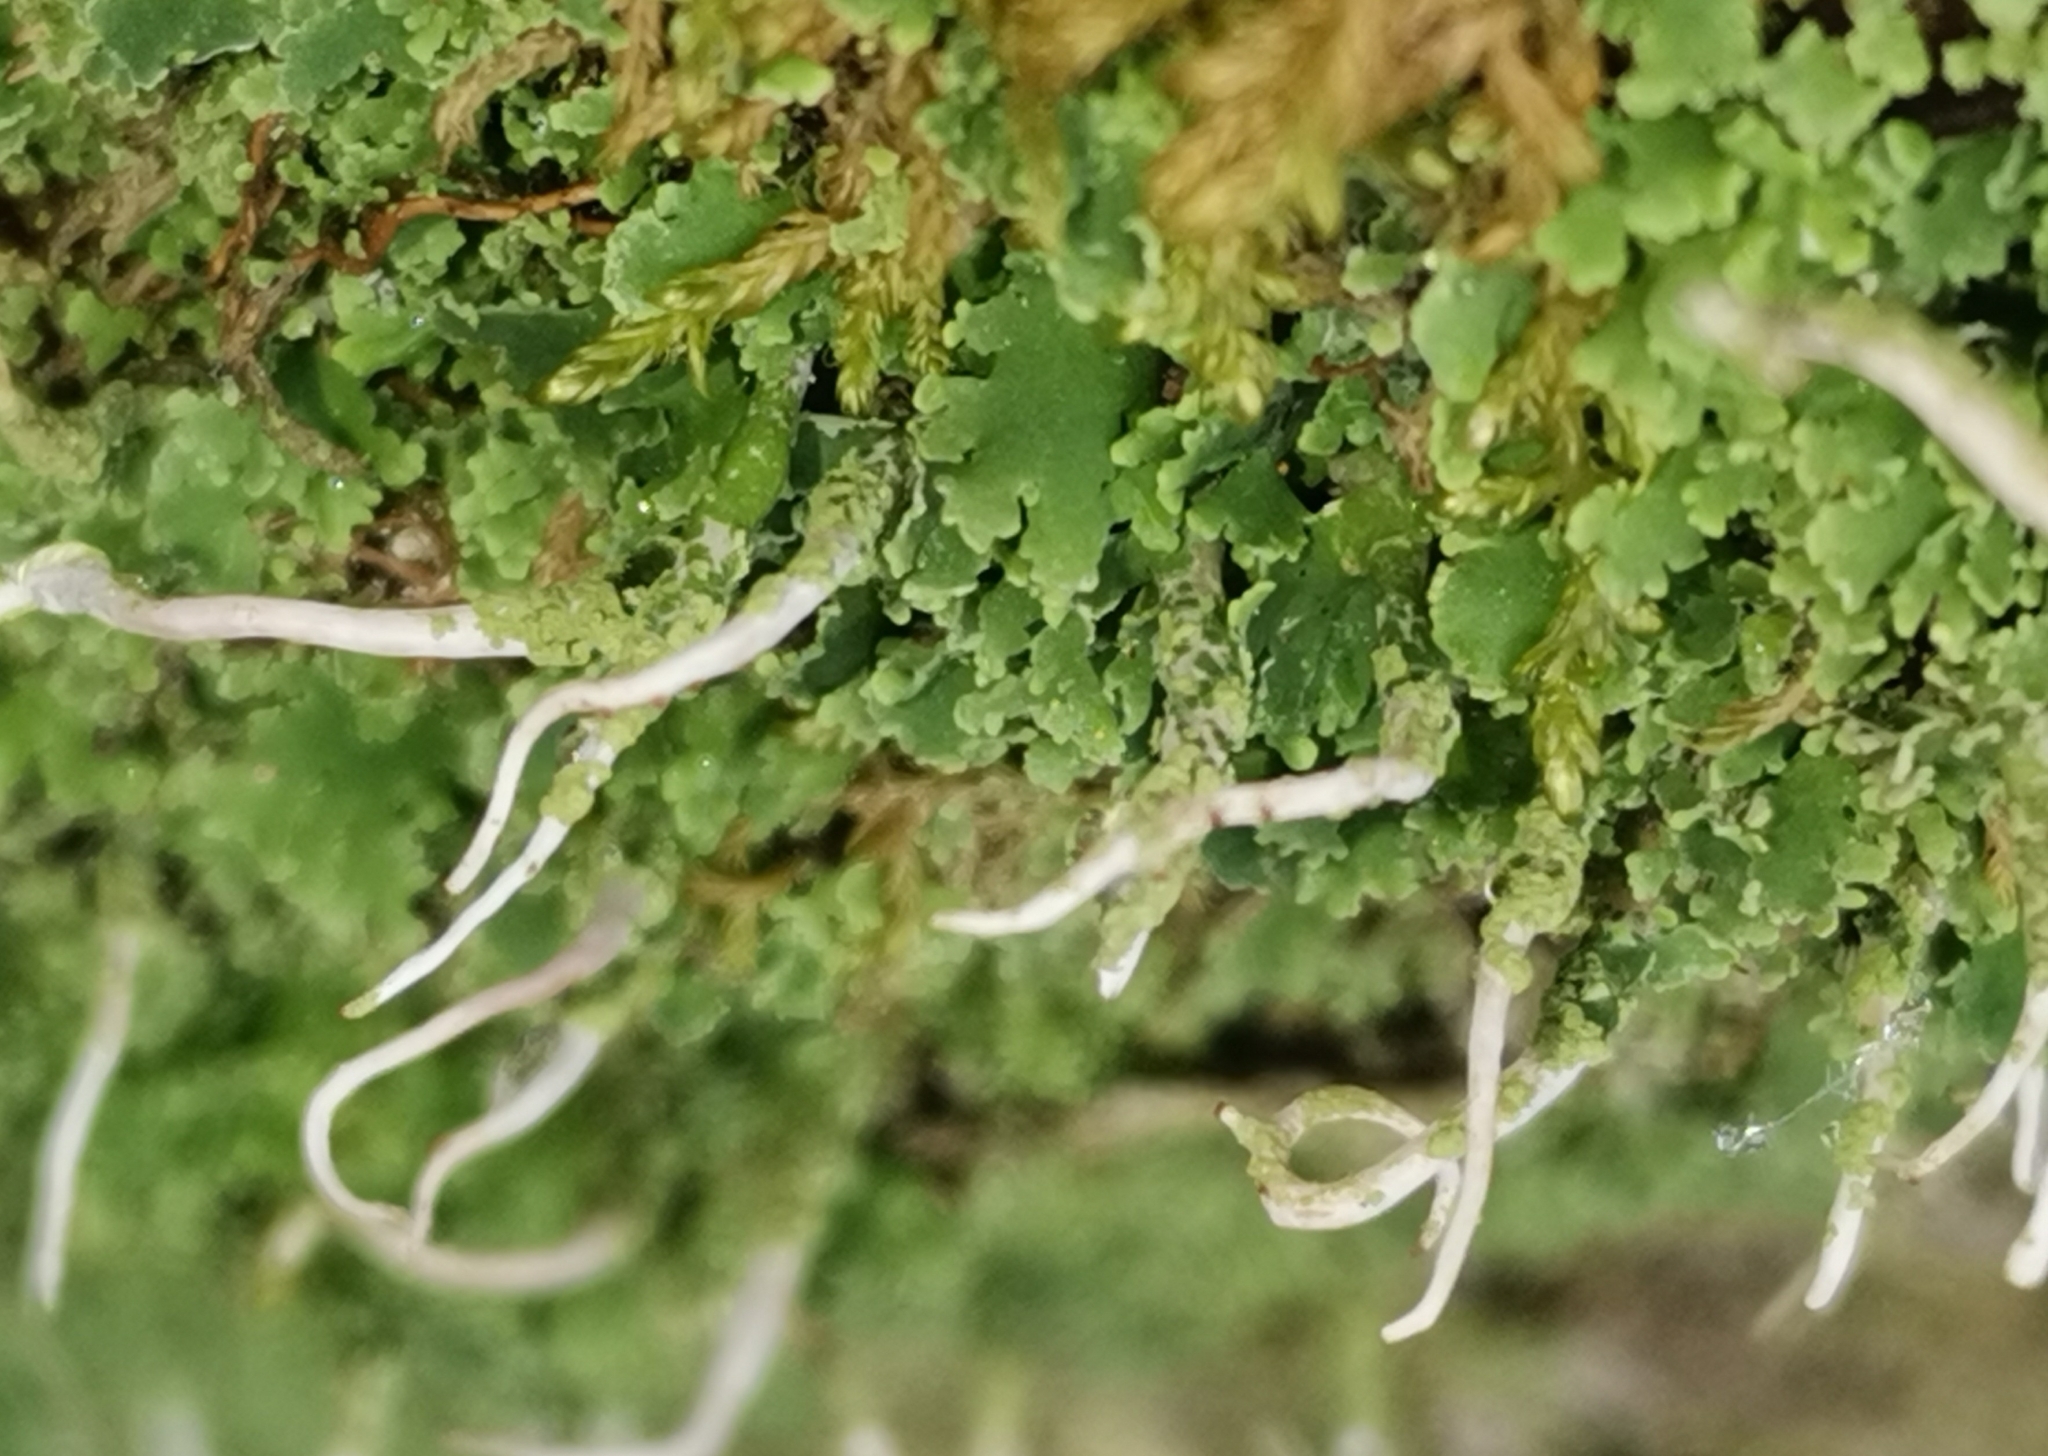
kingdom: Fungi
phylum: Ascomycota
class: Lecanoromycetes
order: Lecanorales
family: Cladoniaceae
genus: Cladonia
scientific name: Cladonia coniocraea
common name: Common powderhorn
